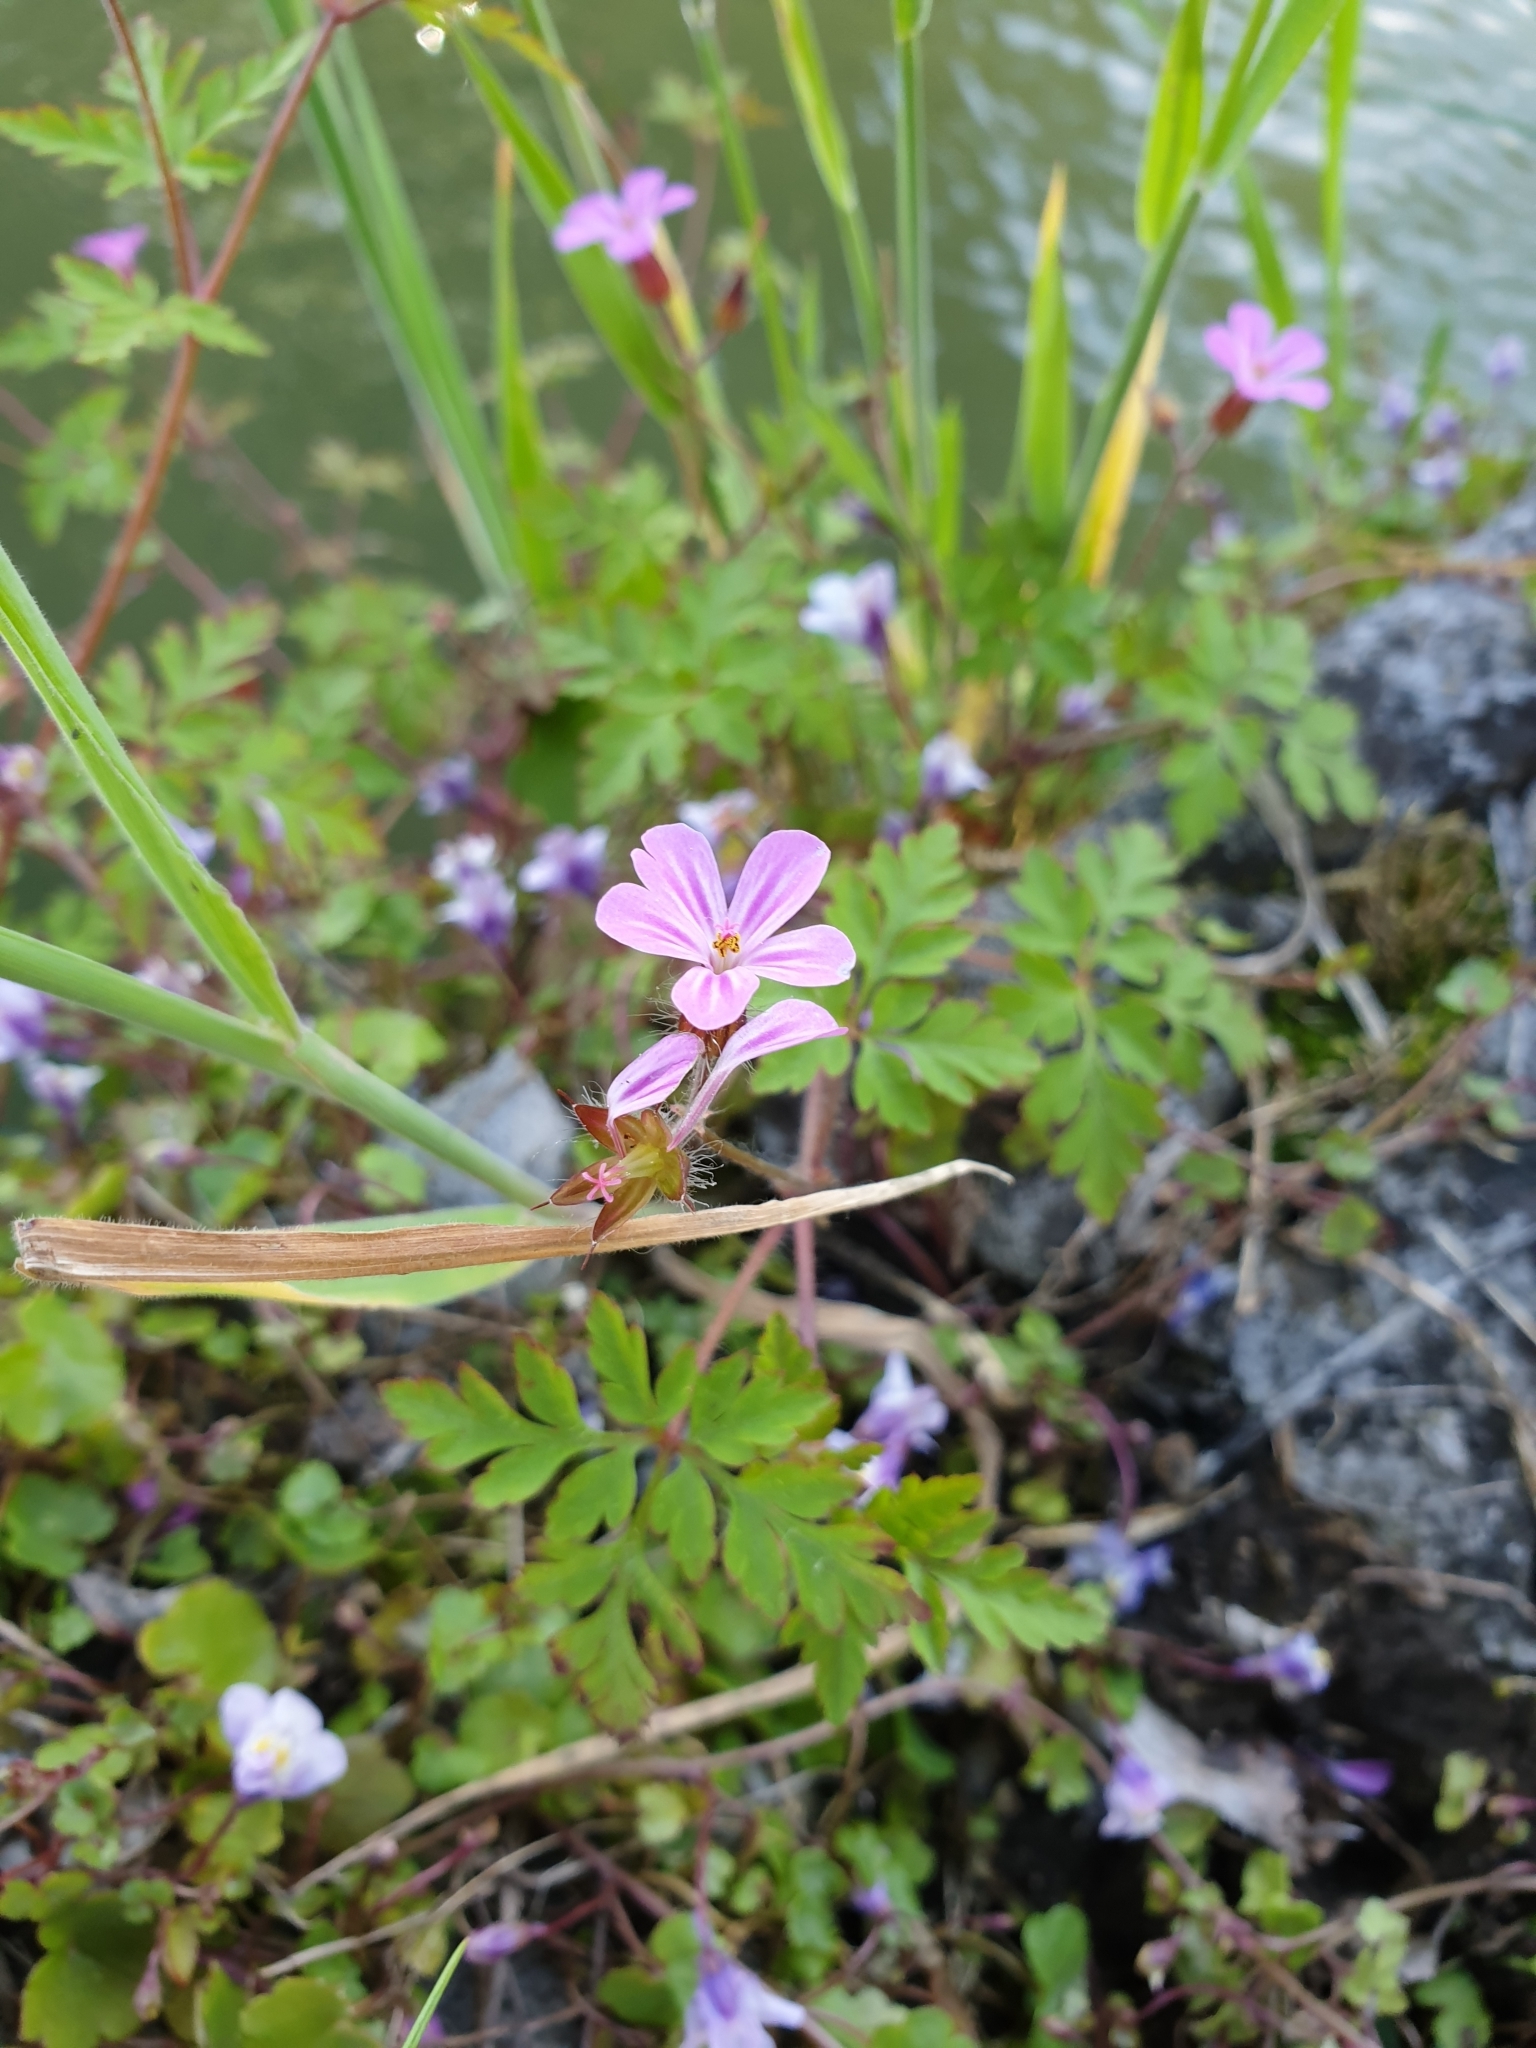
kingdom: Plantae
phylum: Tracheophyta
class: Magnoliopsida
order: Geraniales
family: Geraniaceae
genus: Geranium
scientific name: Geranium robertianum
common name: Herb-robert
